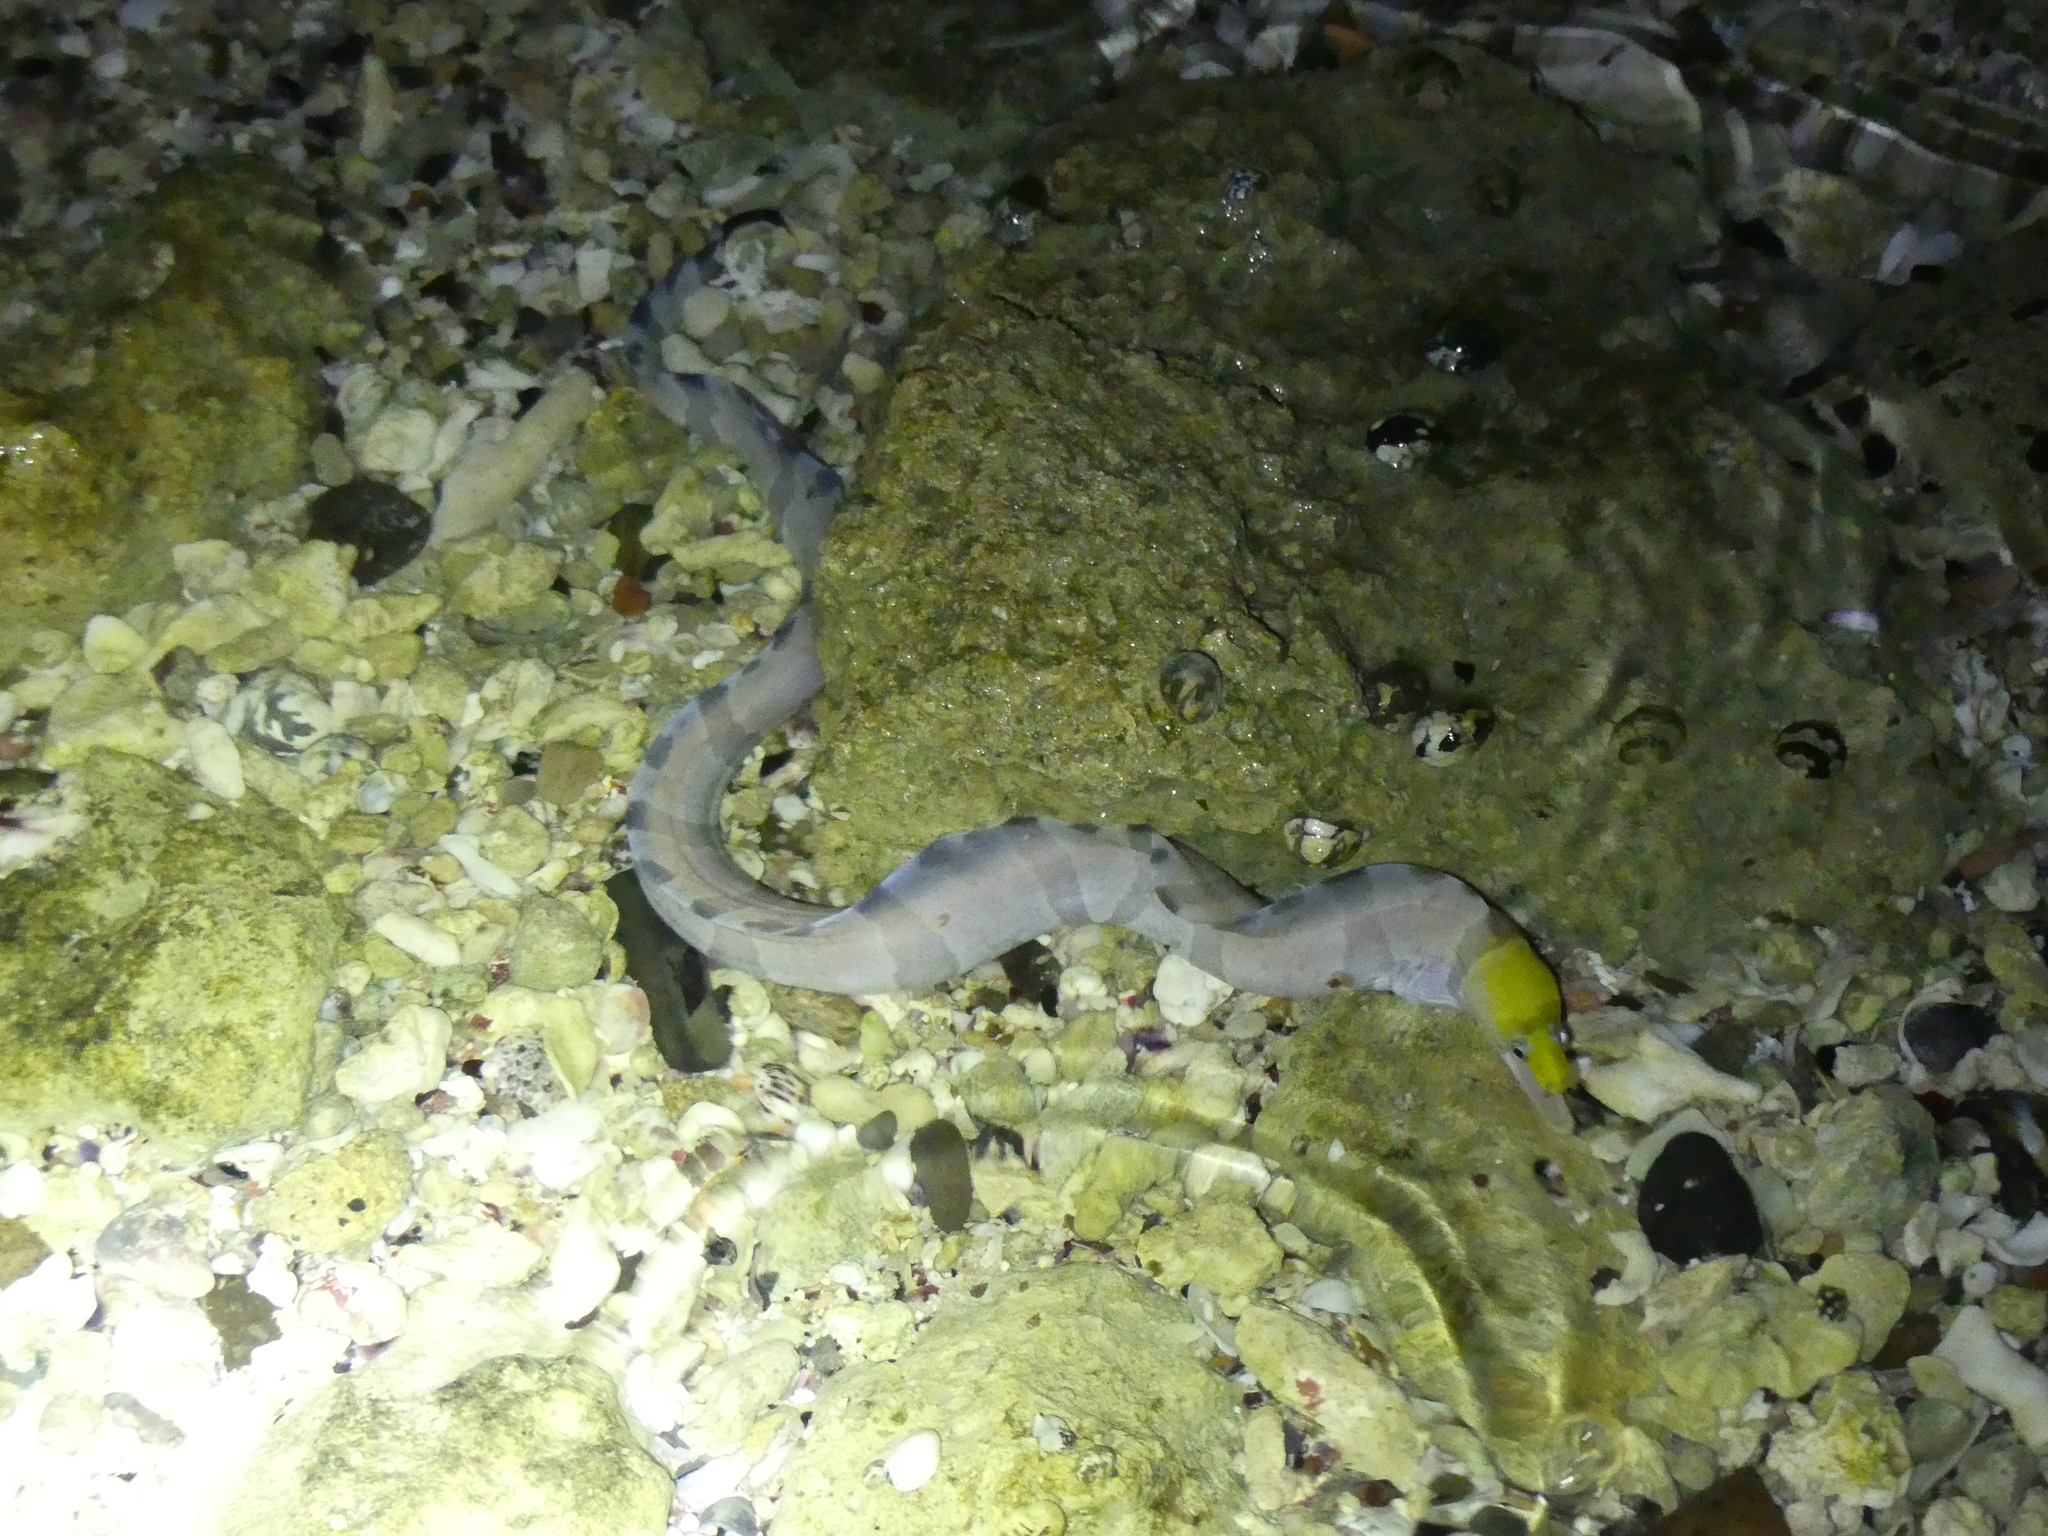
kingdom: Animalia
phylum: Chordata
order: Anguilliformes
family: Muraenidae
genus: Gymnothorax
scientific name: Gymnothorax rueppelliae
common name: Banded moray
